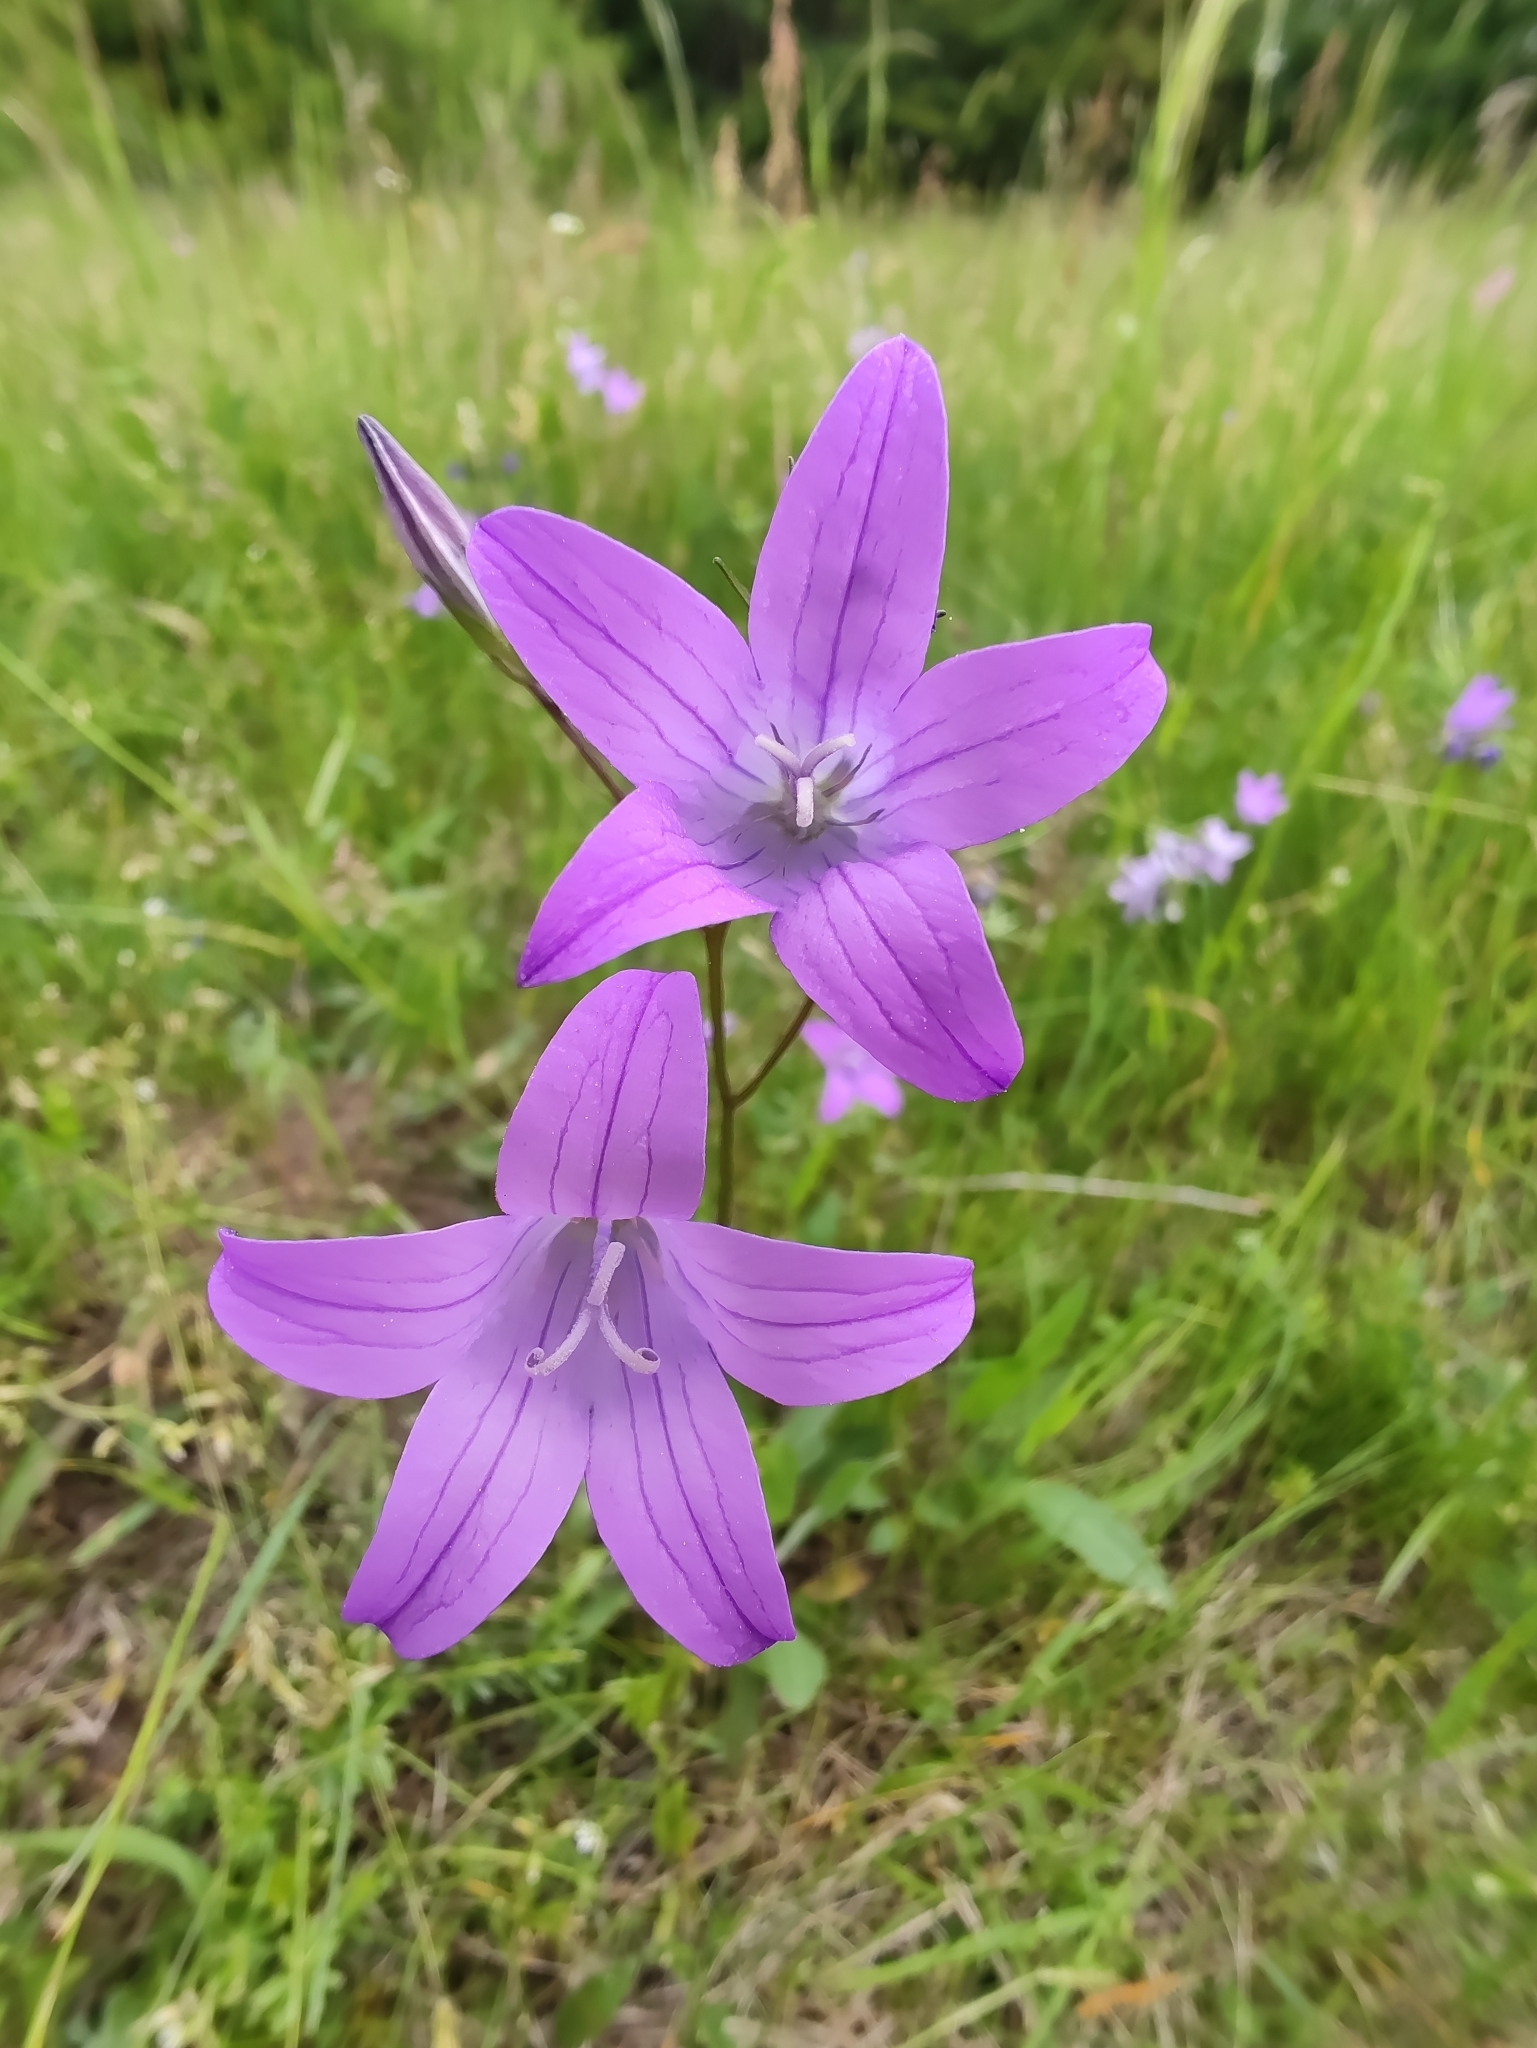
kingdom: Plantae
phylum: Tracheophyta
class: Magnoliopsida
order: Asterales
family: Campanulaceae
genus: Campanula
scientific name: Campanula patula
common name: Spreading bellflower
